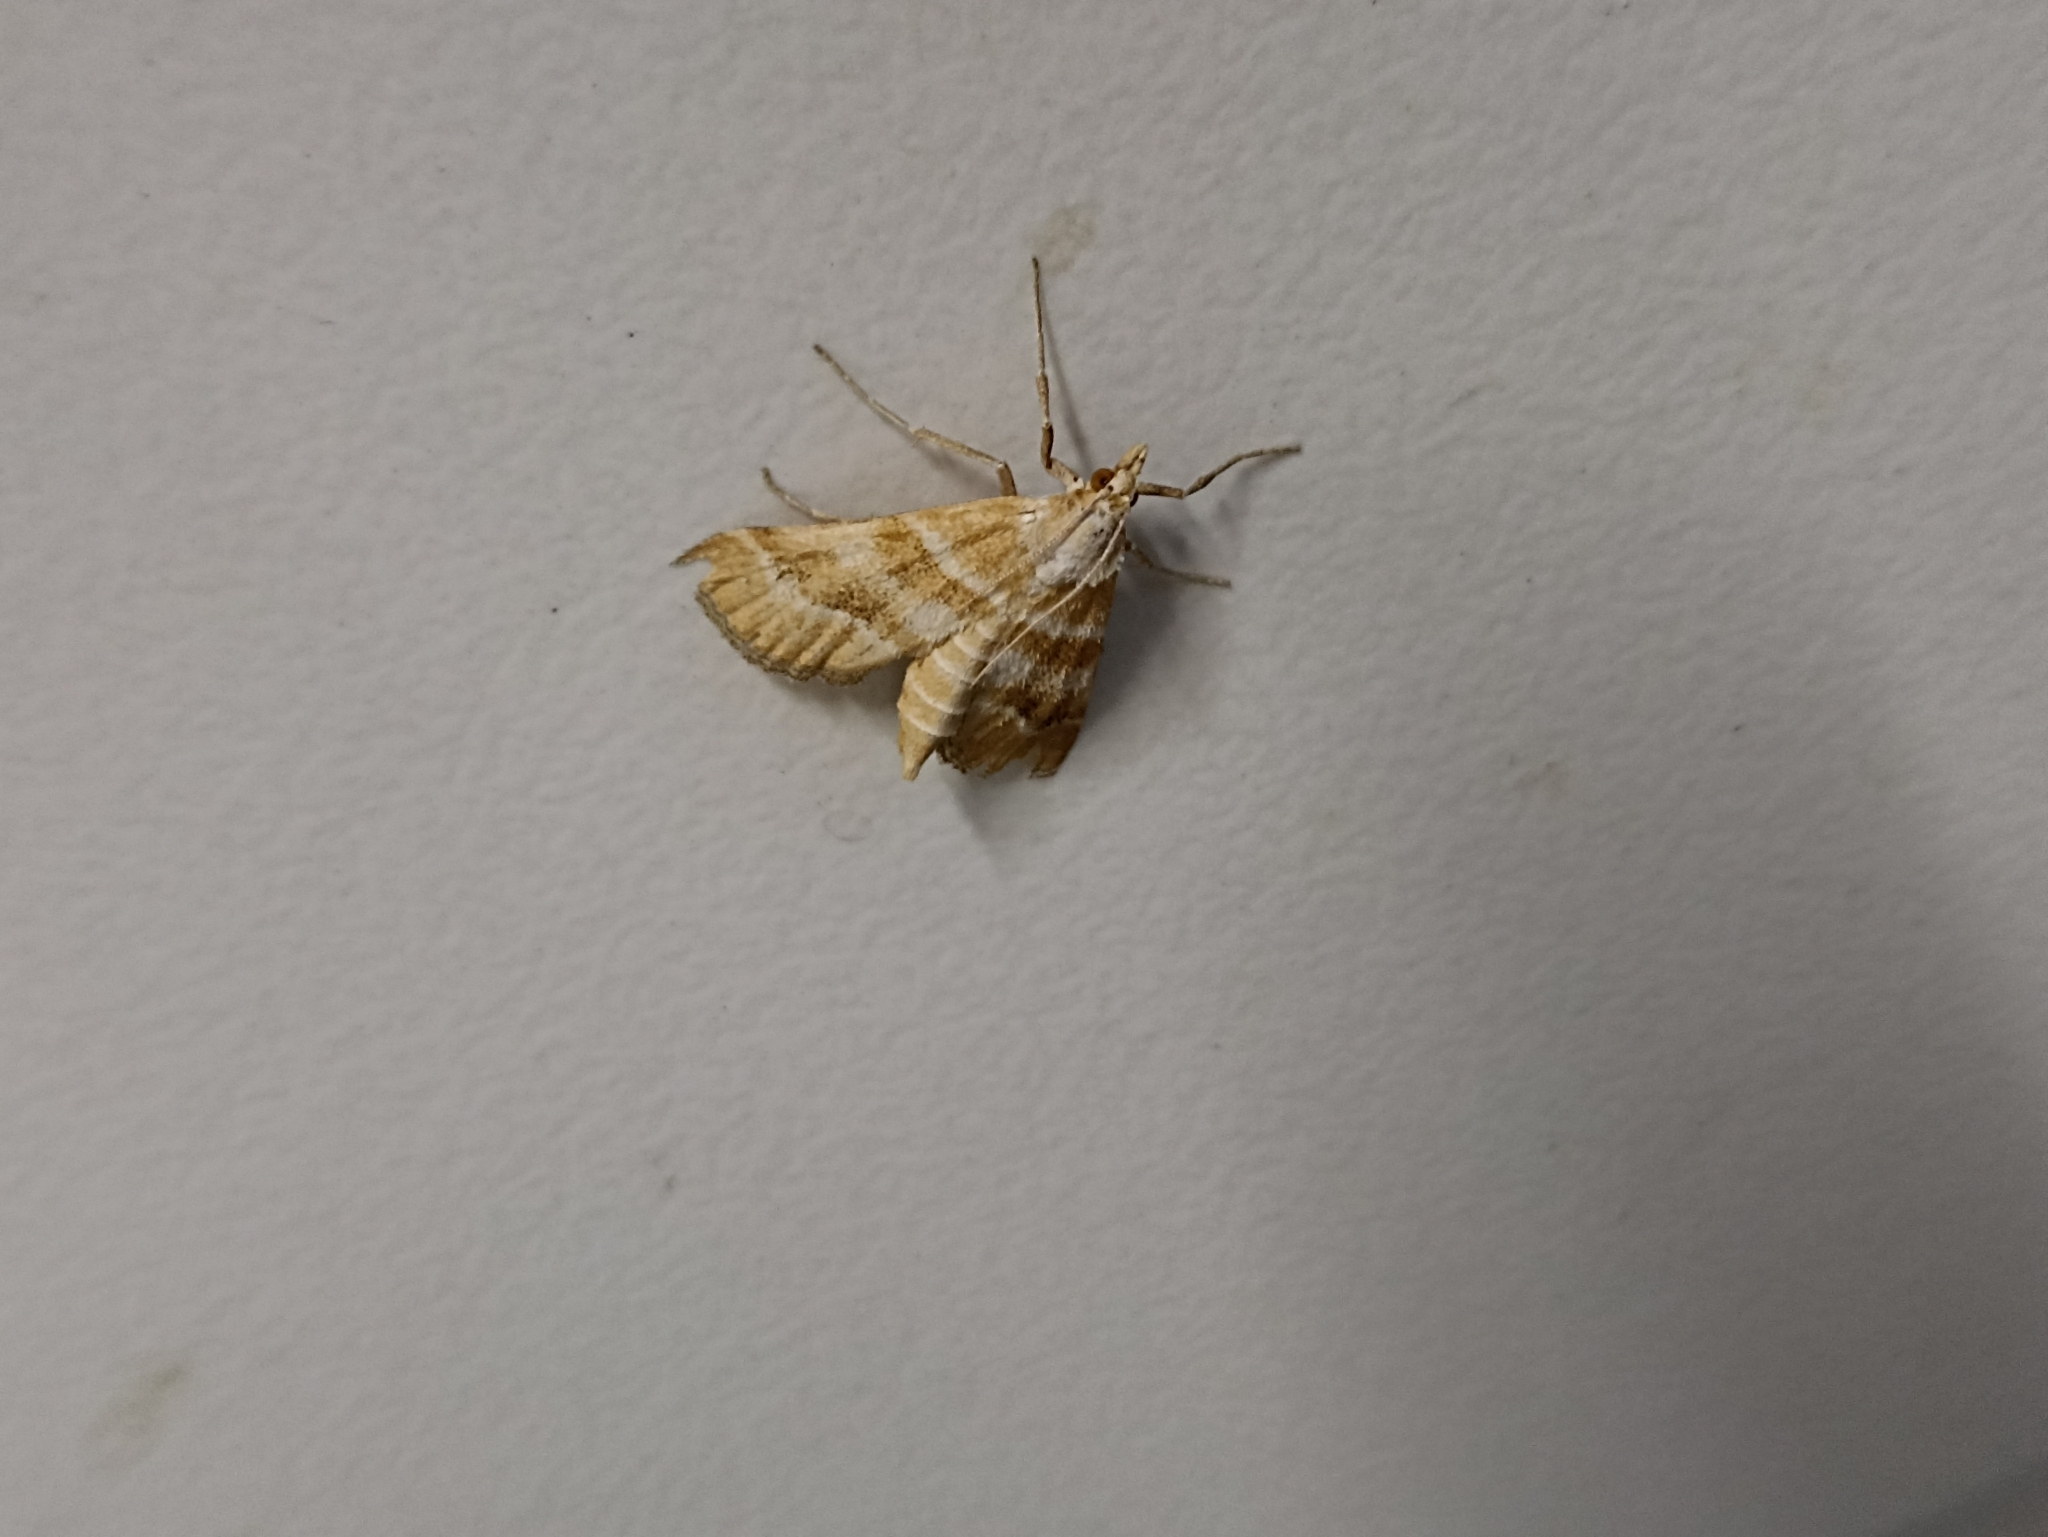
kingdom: Animalia
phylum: Arthropoda
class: Insecta
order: Lepidoptera
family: Crambidae
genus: Metasia
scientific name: Metasia suppandalis
